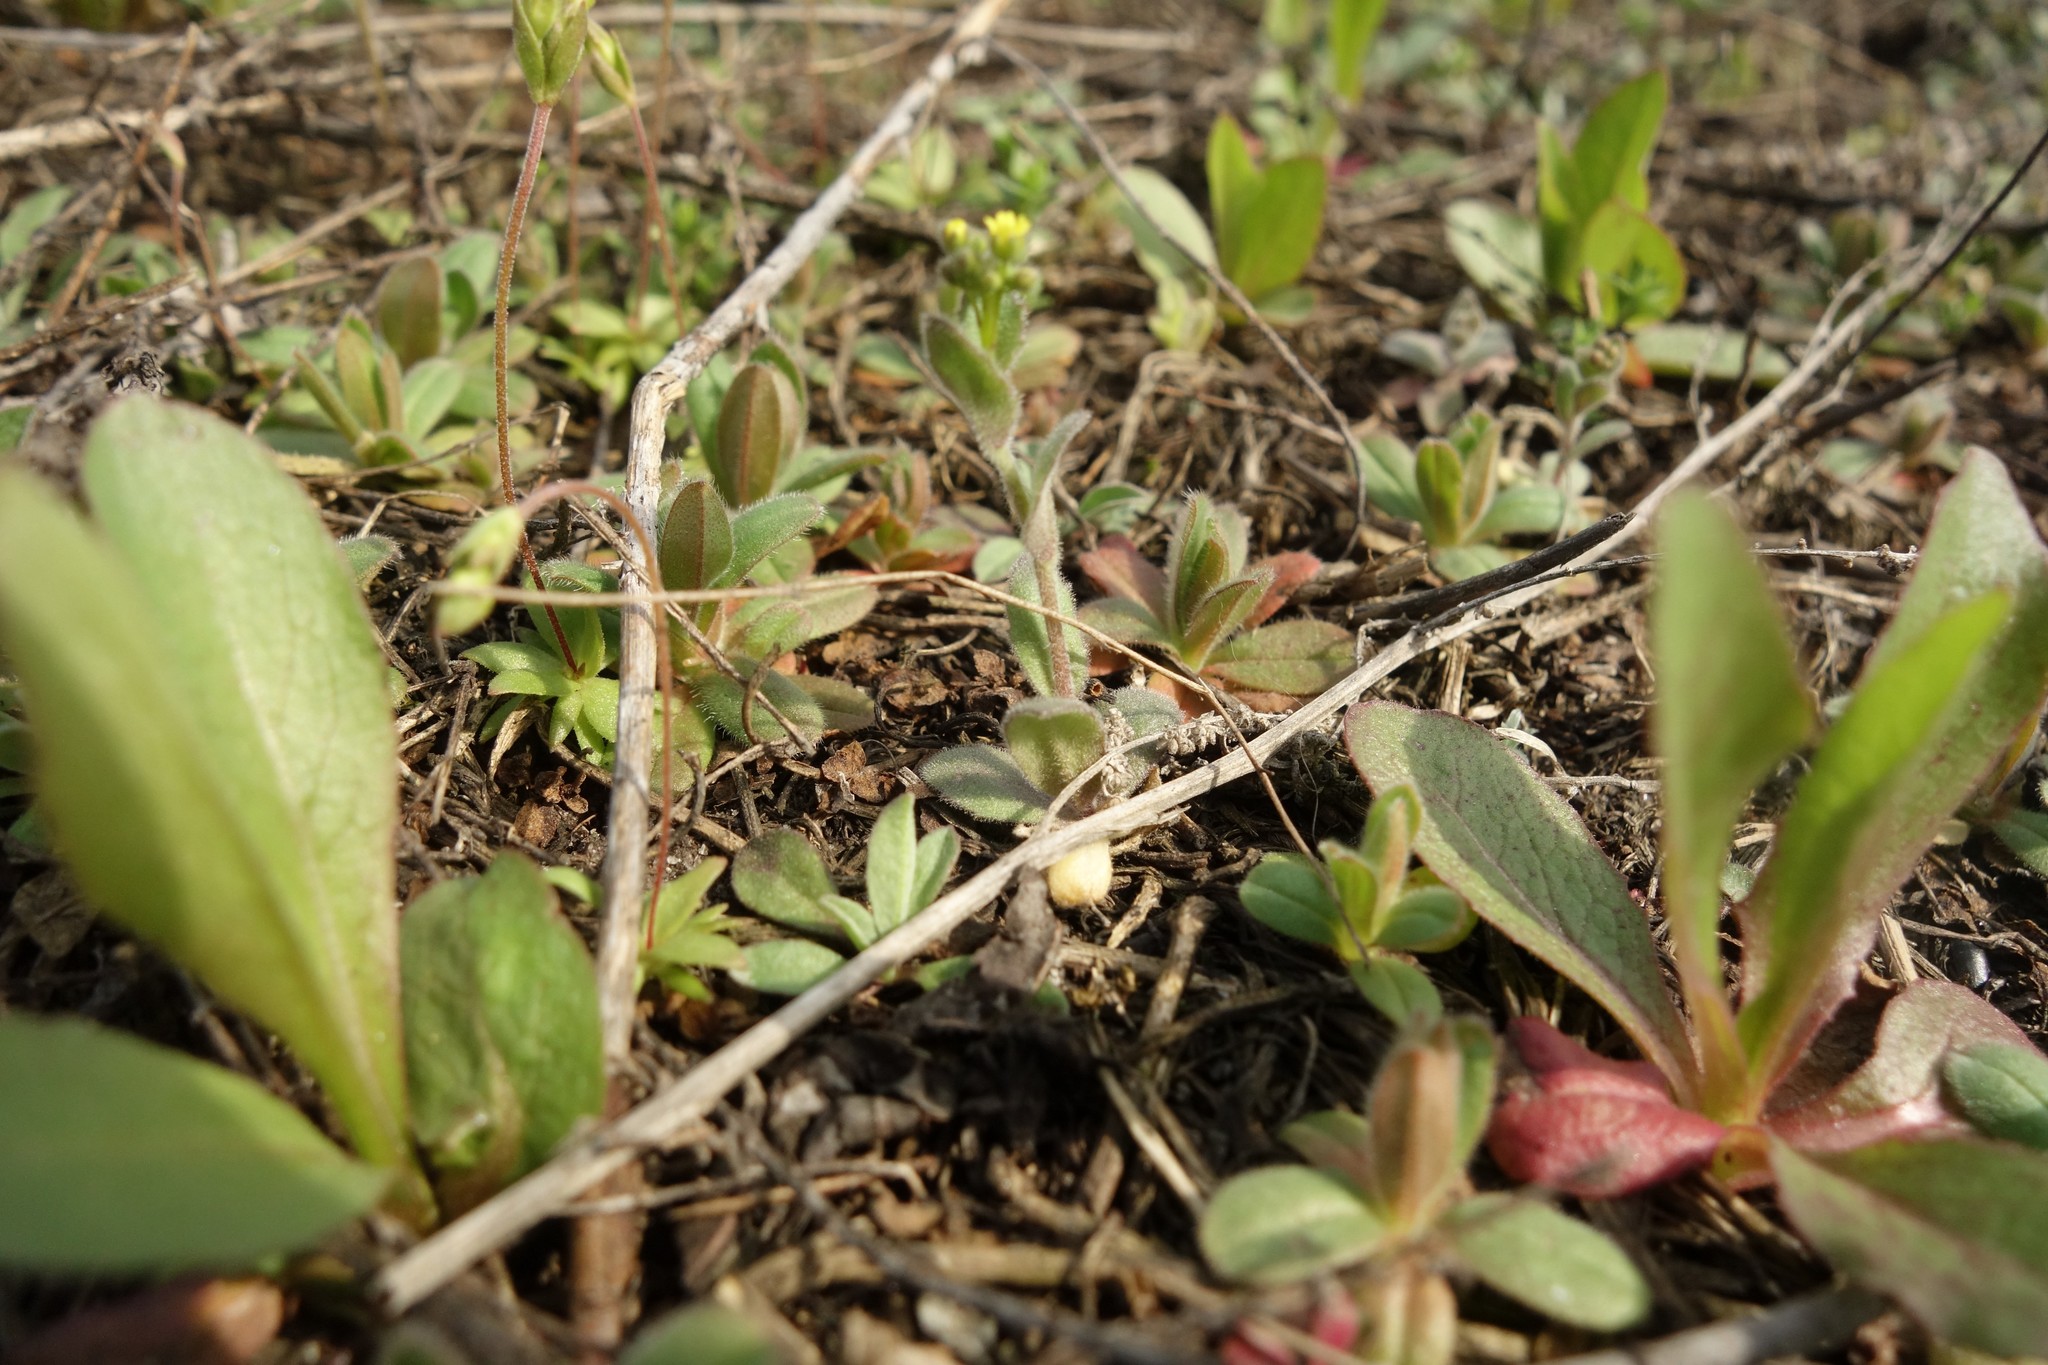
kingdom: Plantae
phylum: Tracheophyta
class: Magnoliopsida
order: Brassicales
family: Brassicaceae
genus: Draba
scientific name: Draba nemorosa
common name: Wood whitlow-grass
